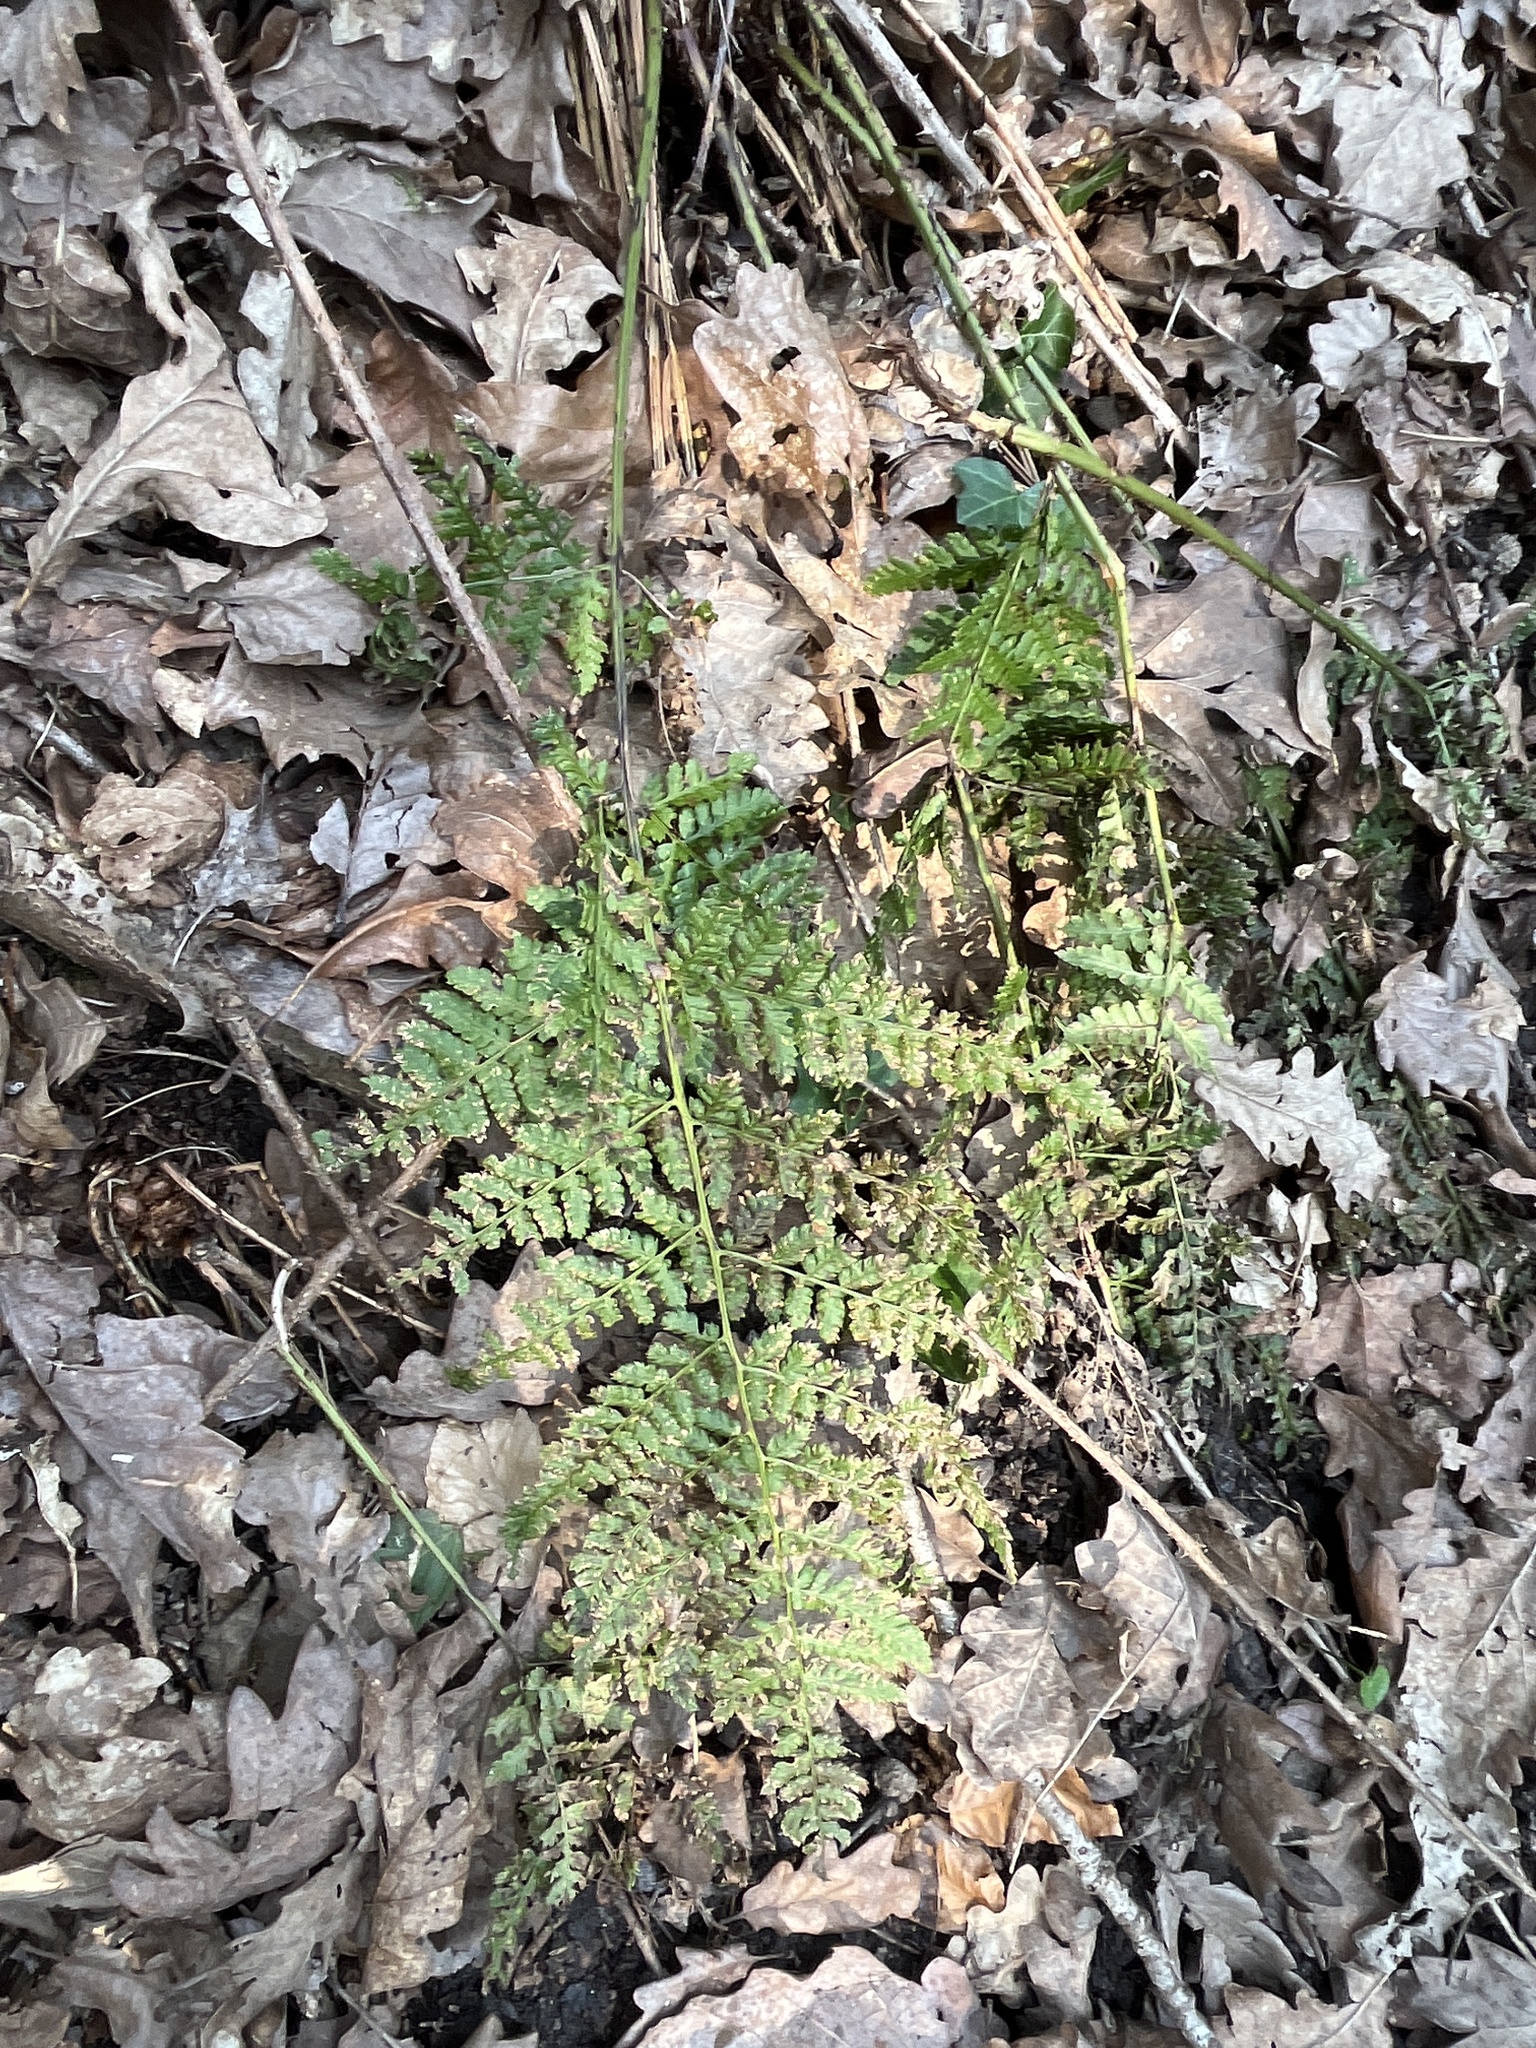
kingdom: Plantae
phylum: Tracheophyta
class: Polypodiopsida
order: Polypodiales
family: Dryopteridaceae
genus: Dryopteris
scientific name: Dryopteris dilatata
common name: Broad buckler-fern
